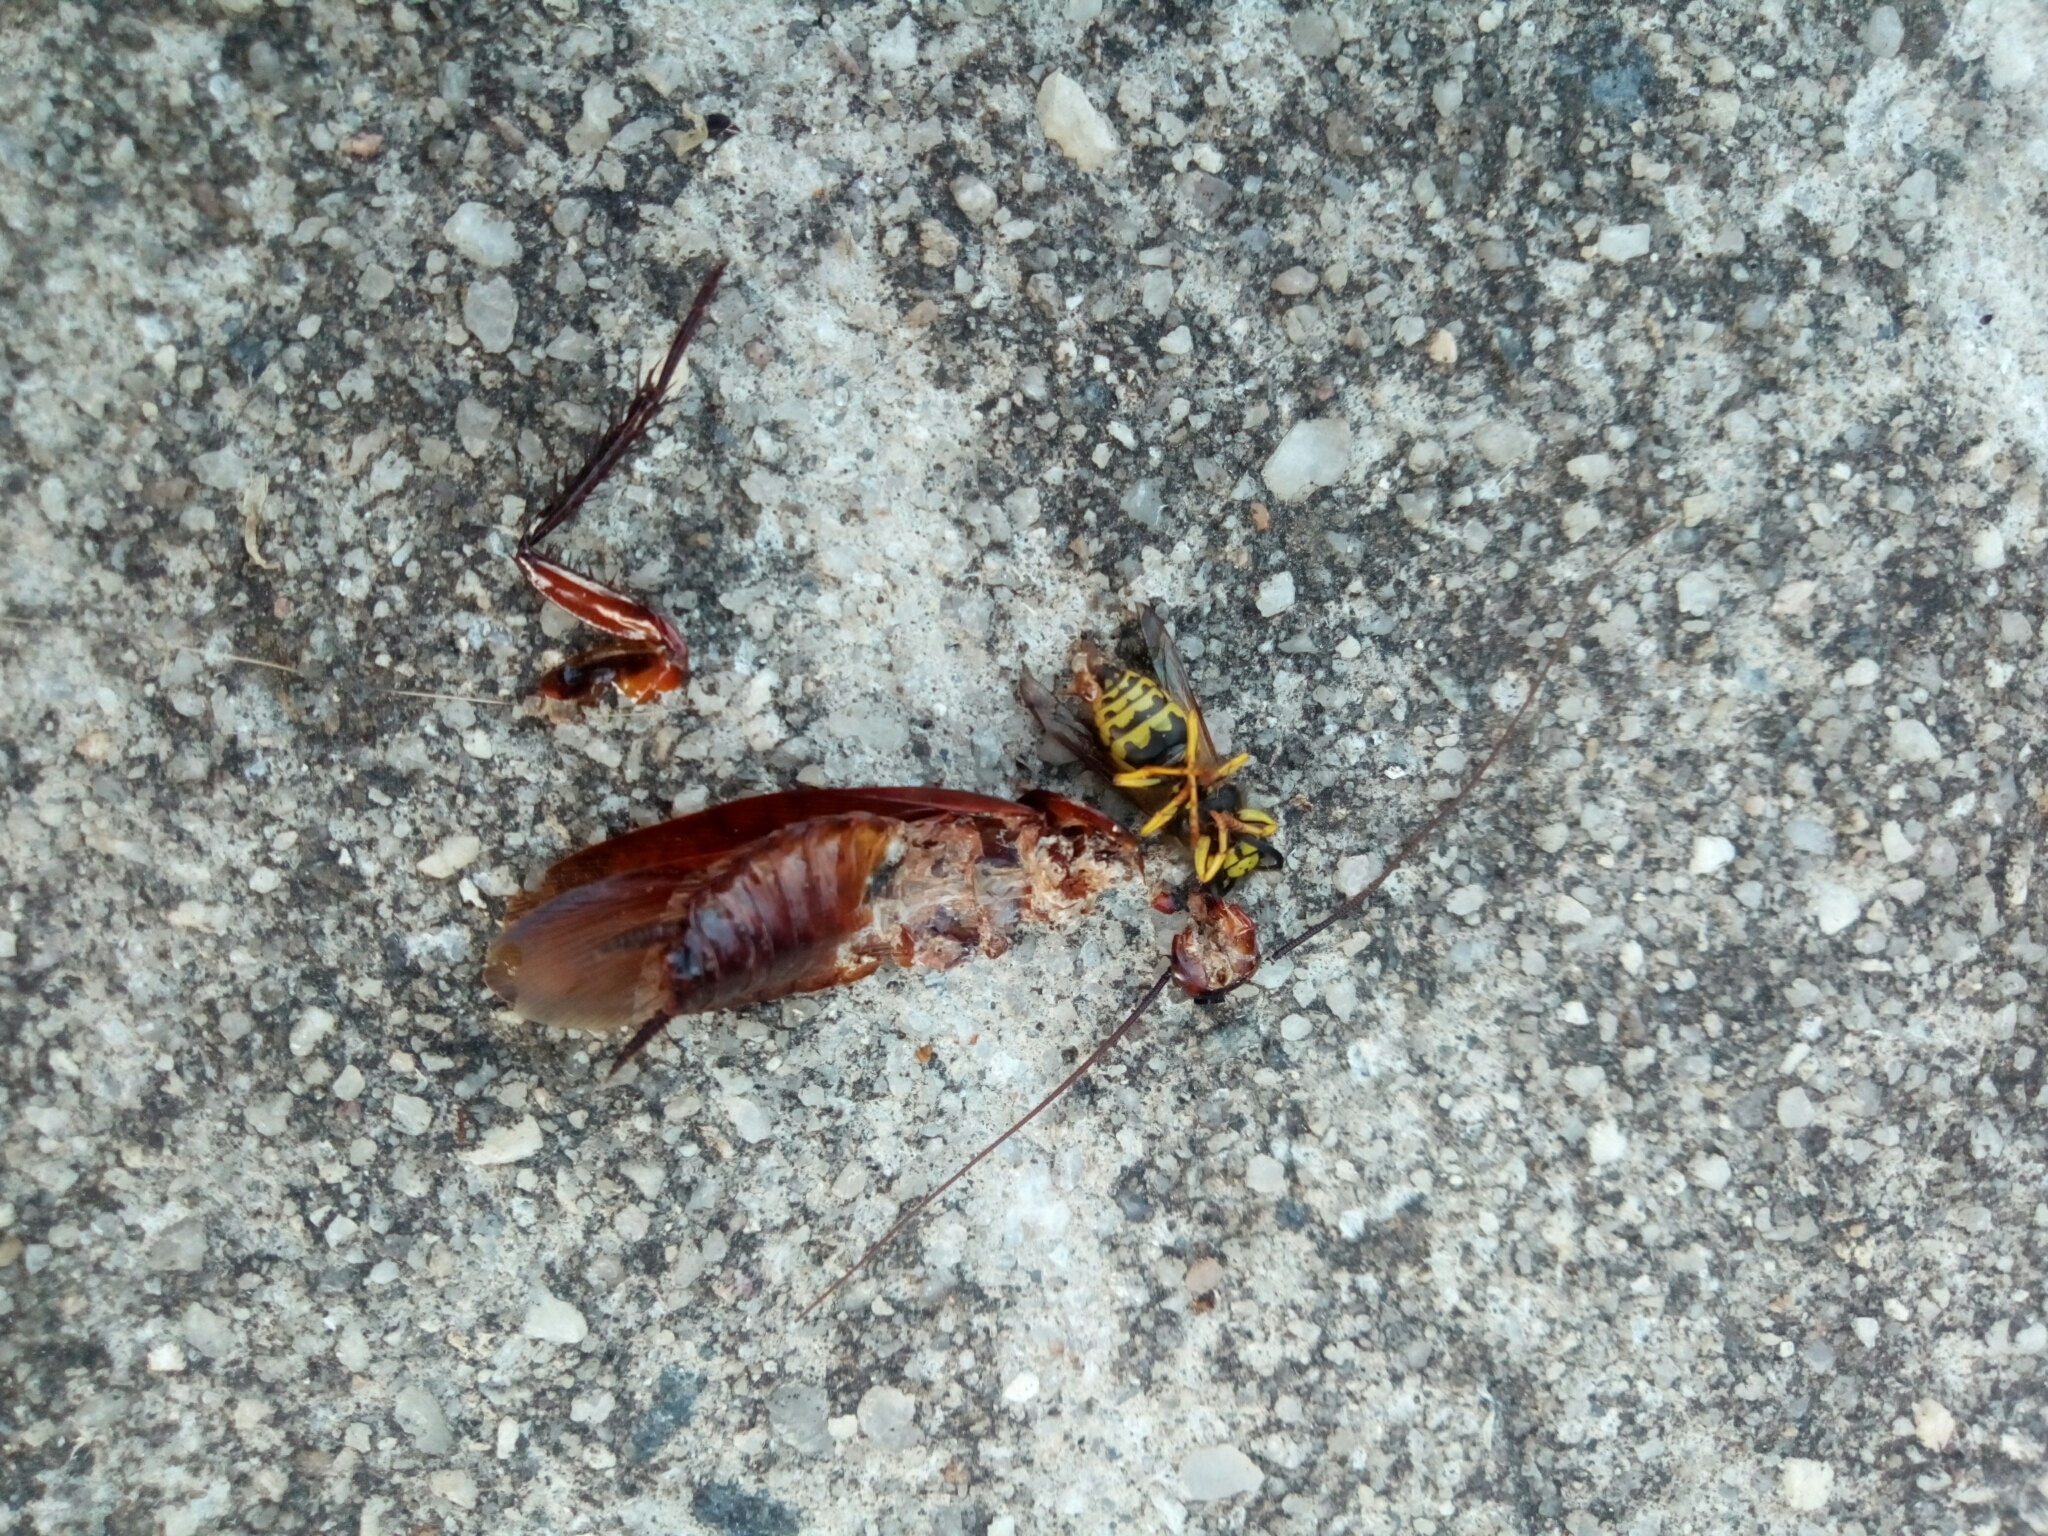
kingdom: Animalia
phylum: Arthropoda
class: Insecta
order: Hymenoptera
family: Vespidae
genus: Vespula
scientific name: Vespula
